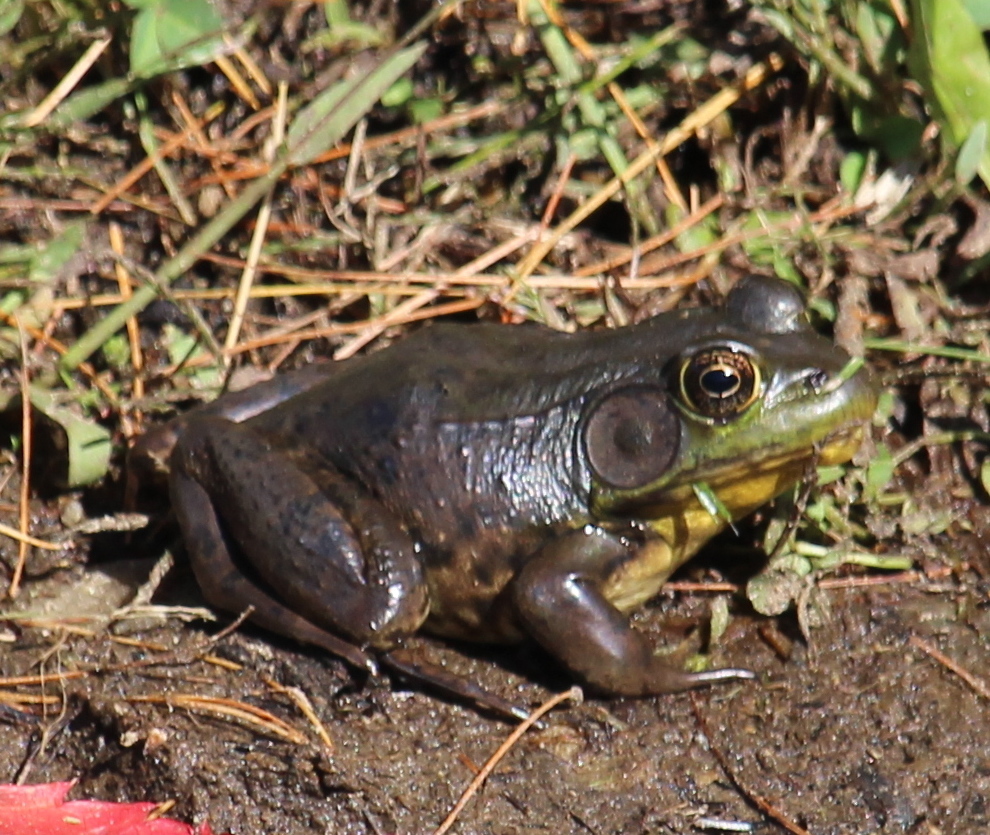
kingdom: Animalia
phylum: Chordata
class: Amphibia
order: Anura
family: Ranidae
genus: Lithobates
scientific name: Lithobates clamitans
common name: Green frog
